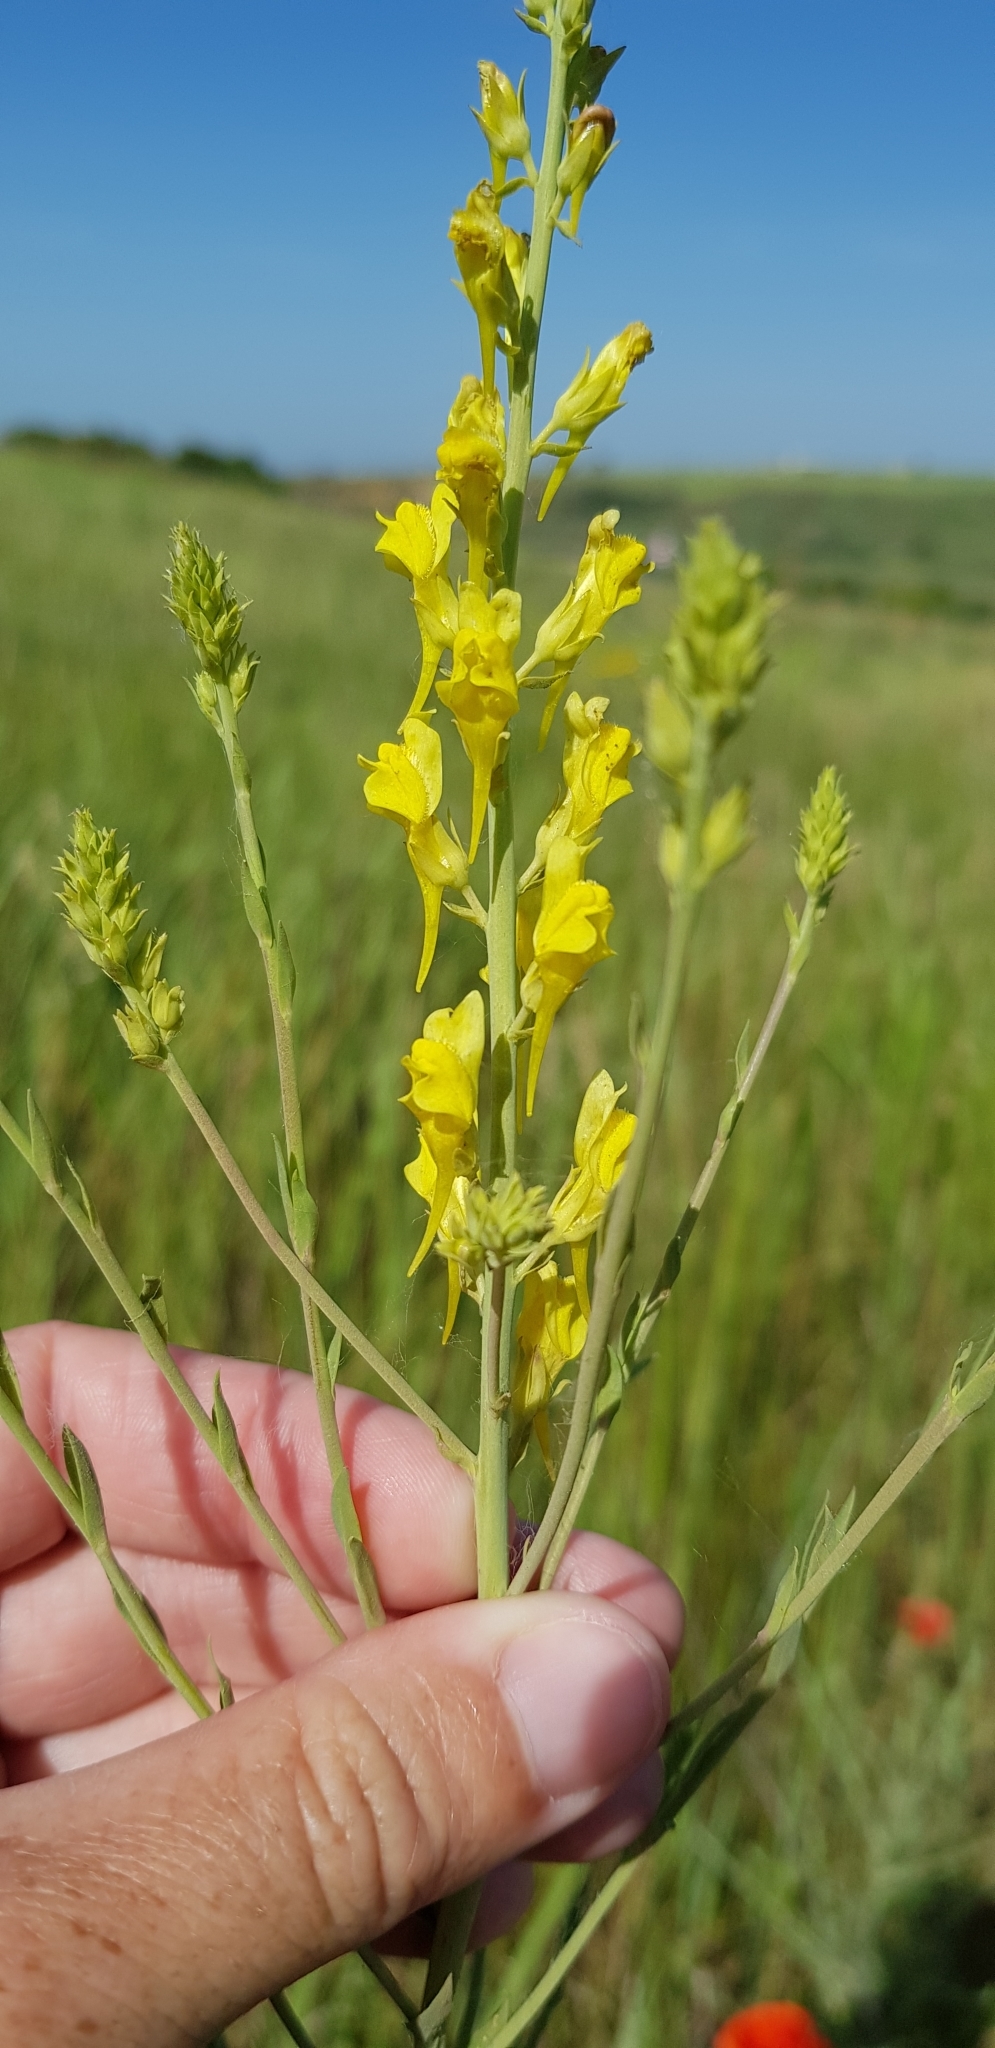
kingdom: Plantae
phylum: Tracheophyta
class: Magnoliopsida
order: Lamiales
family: Plantaginaceae
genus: Linaria
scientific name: Linaria genistifolia
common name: Broomleaf toadflax
